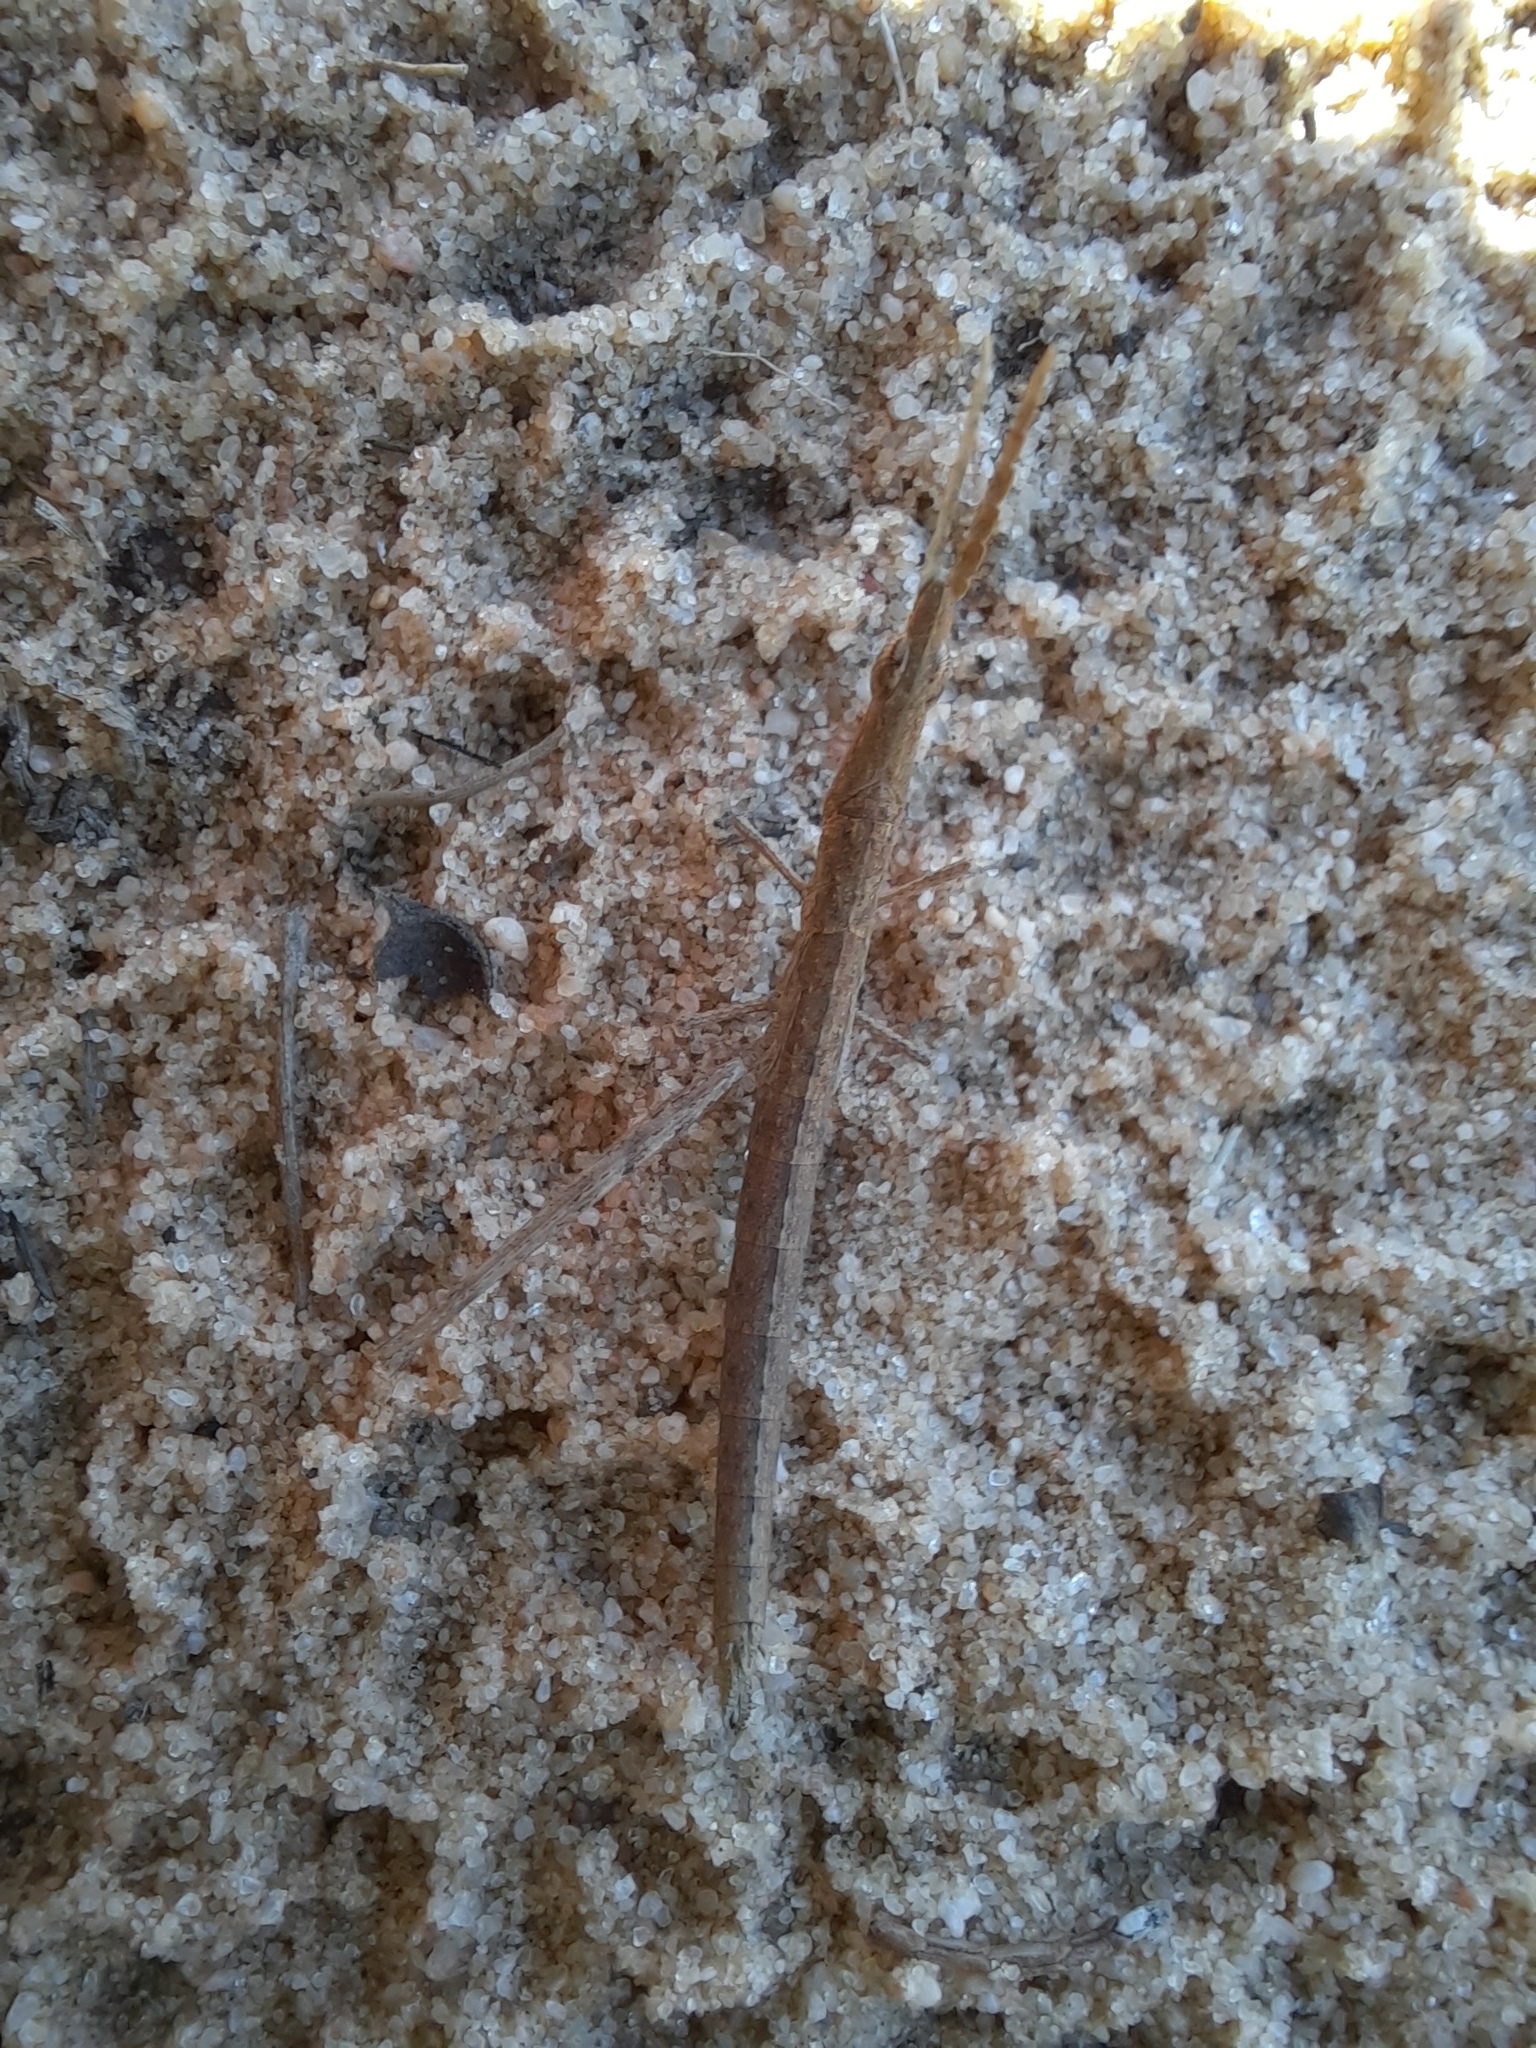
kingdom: Animalia
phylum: Arthropoda
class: Insecta
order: Orthoptera
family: Morabidae
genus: Vandiemenella
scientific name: Vandiemenella viatica
